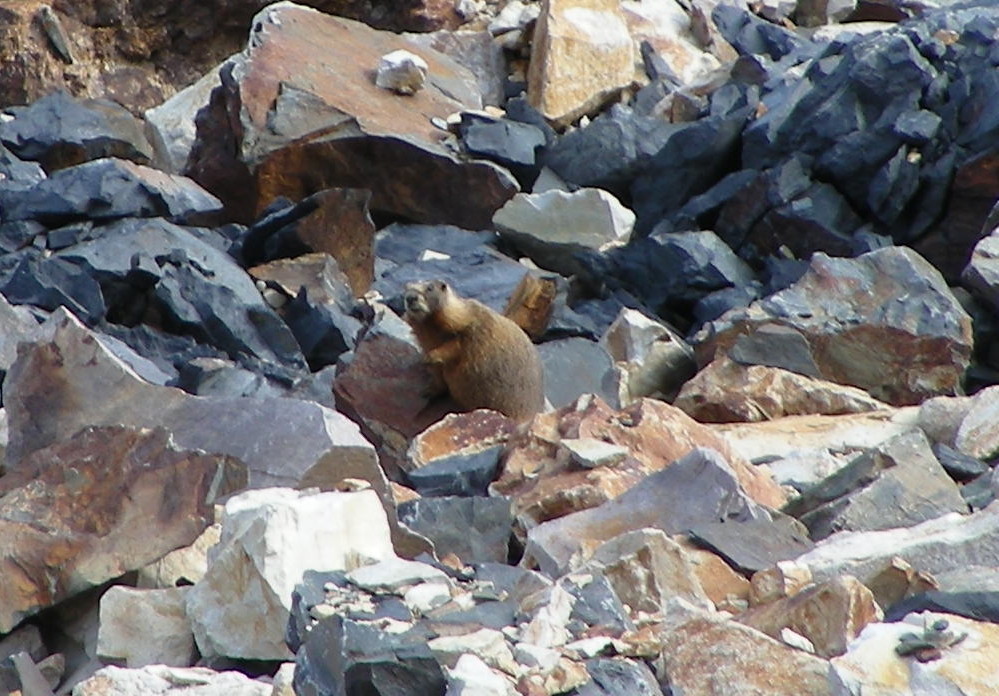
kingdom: Animalia
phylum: Chordata
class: Mammalia
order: Rodentia
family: Sciuridae
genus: Marmota
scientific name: Marmota flaviventris
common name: Yellow-bellied marmot
